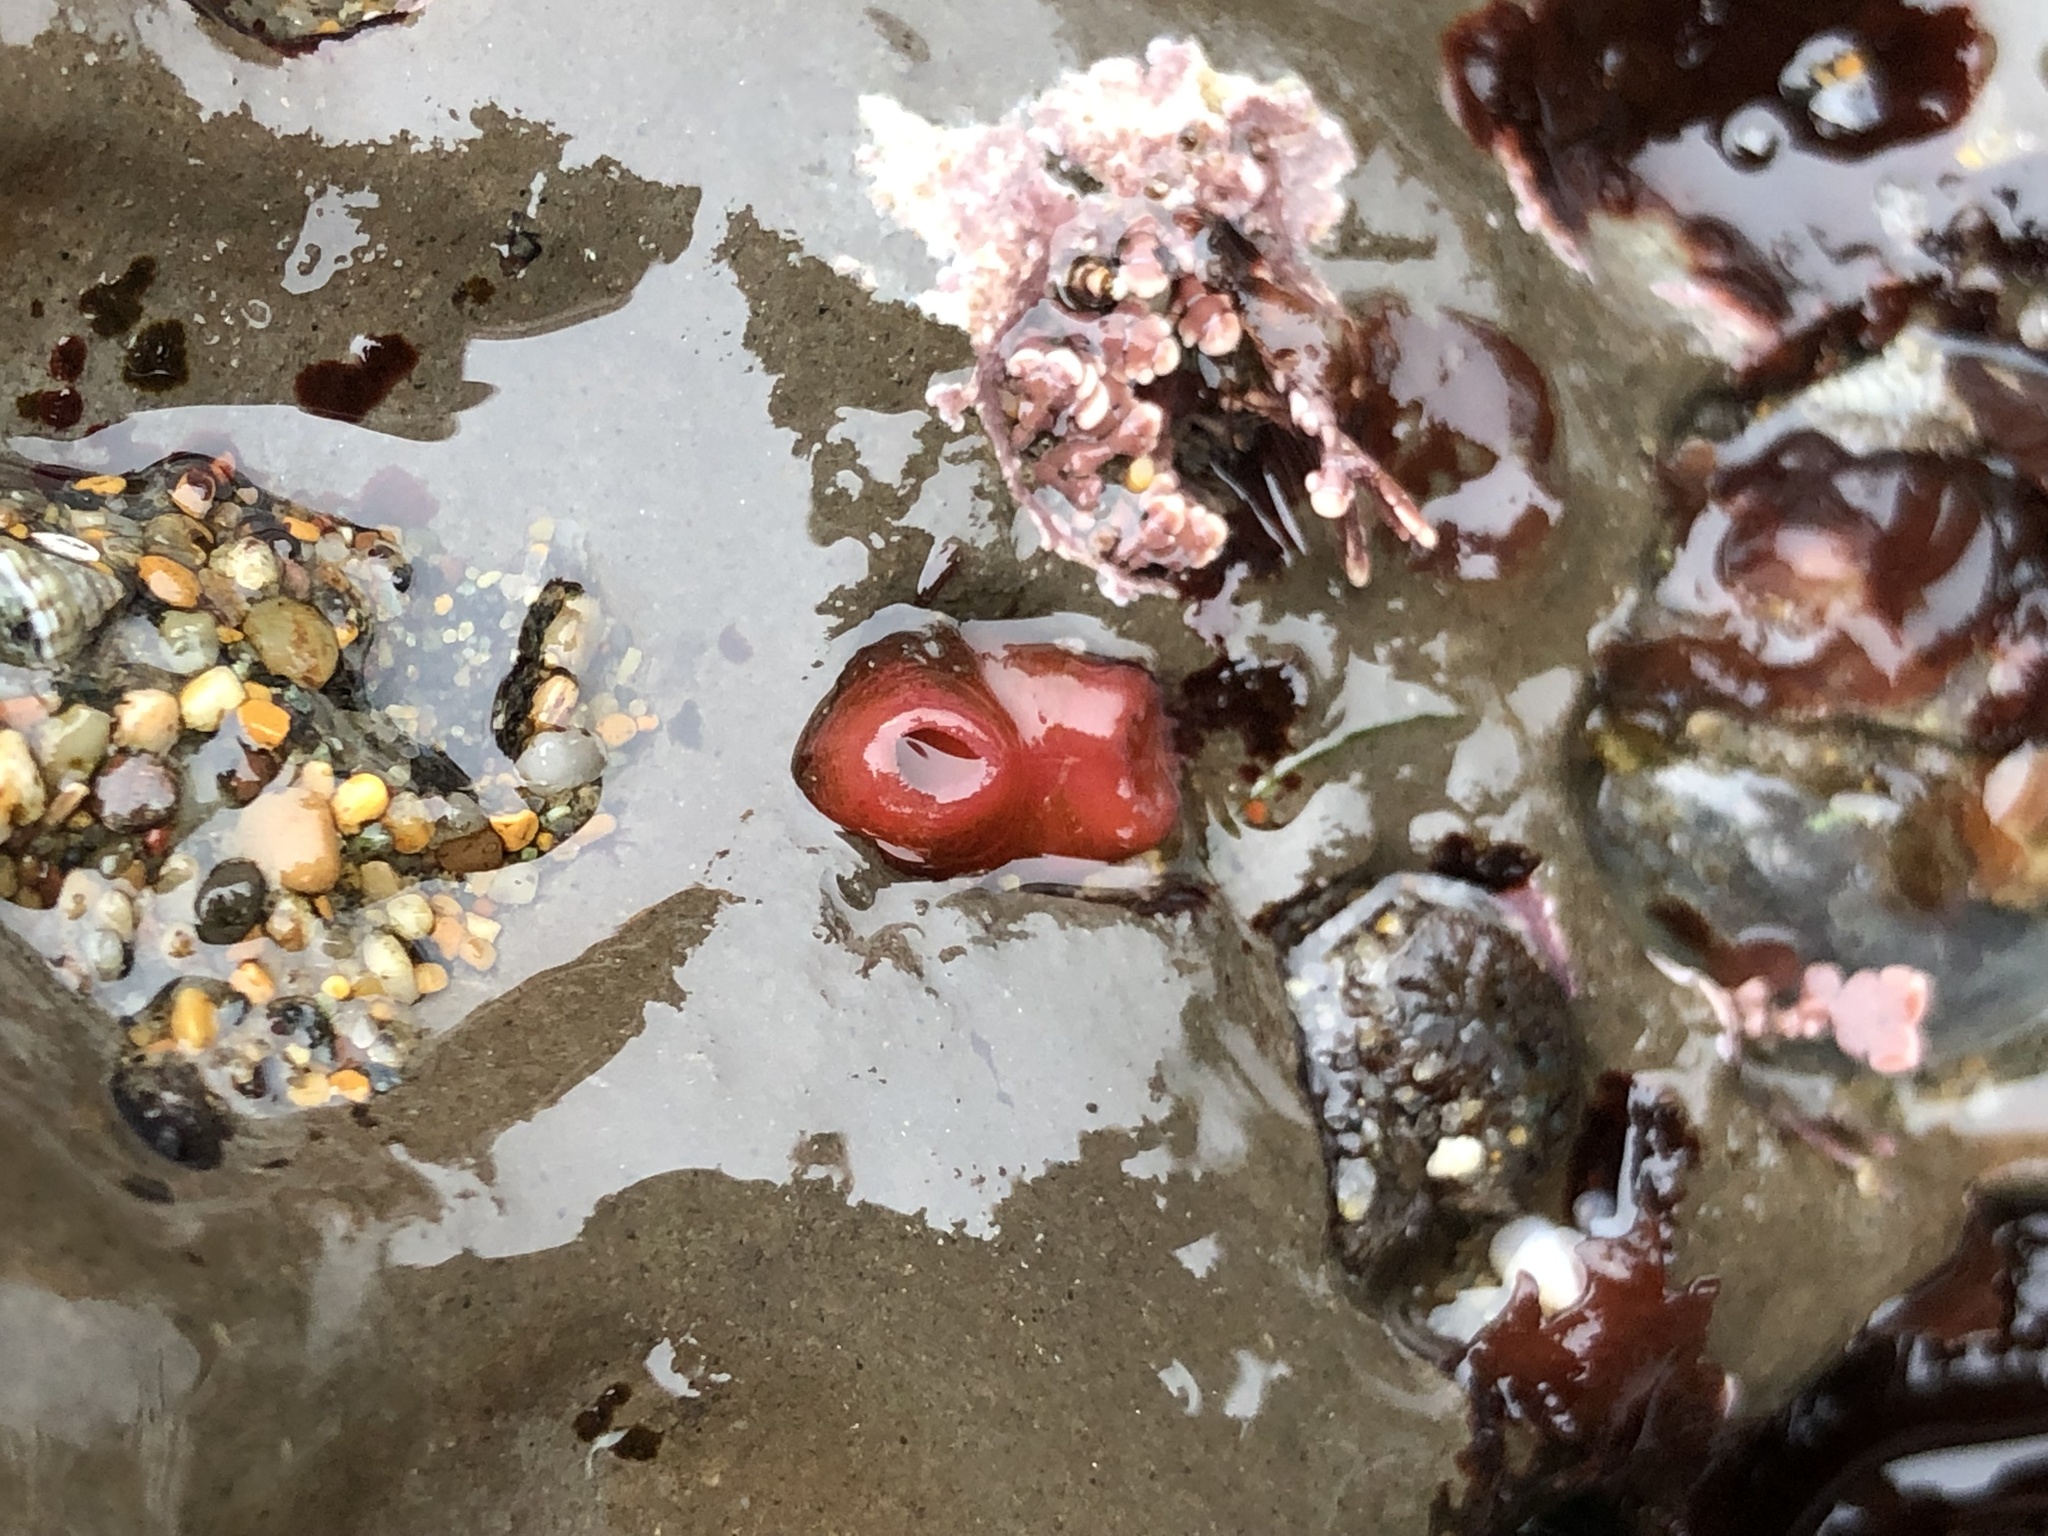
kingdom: Animalia
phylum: Mollusca
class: Bivalvia
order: Adapedonta
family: Hiatellidae
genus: Hiatella
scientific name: Hiatella arctica
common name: Arctic hiatella
